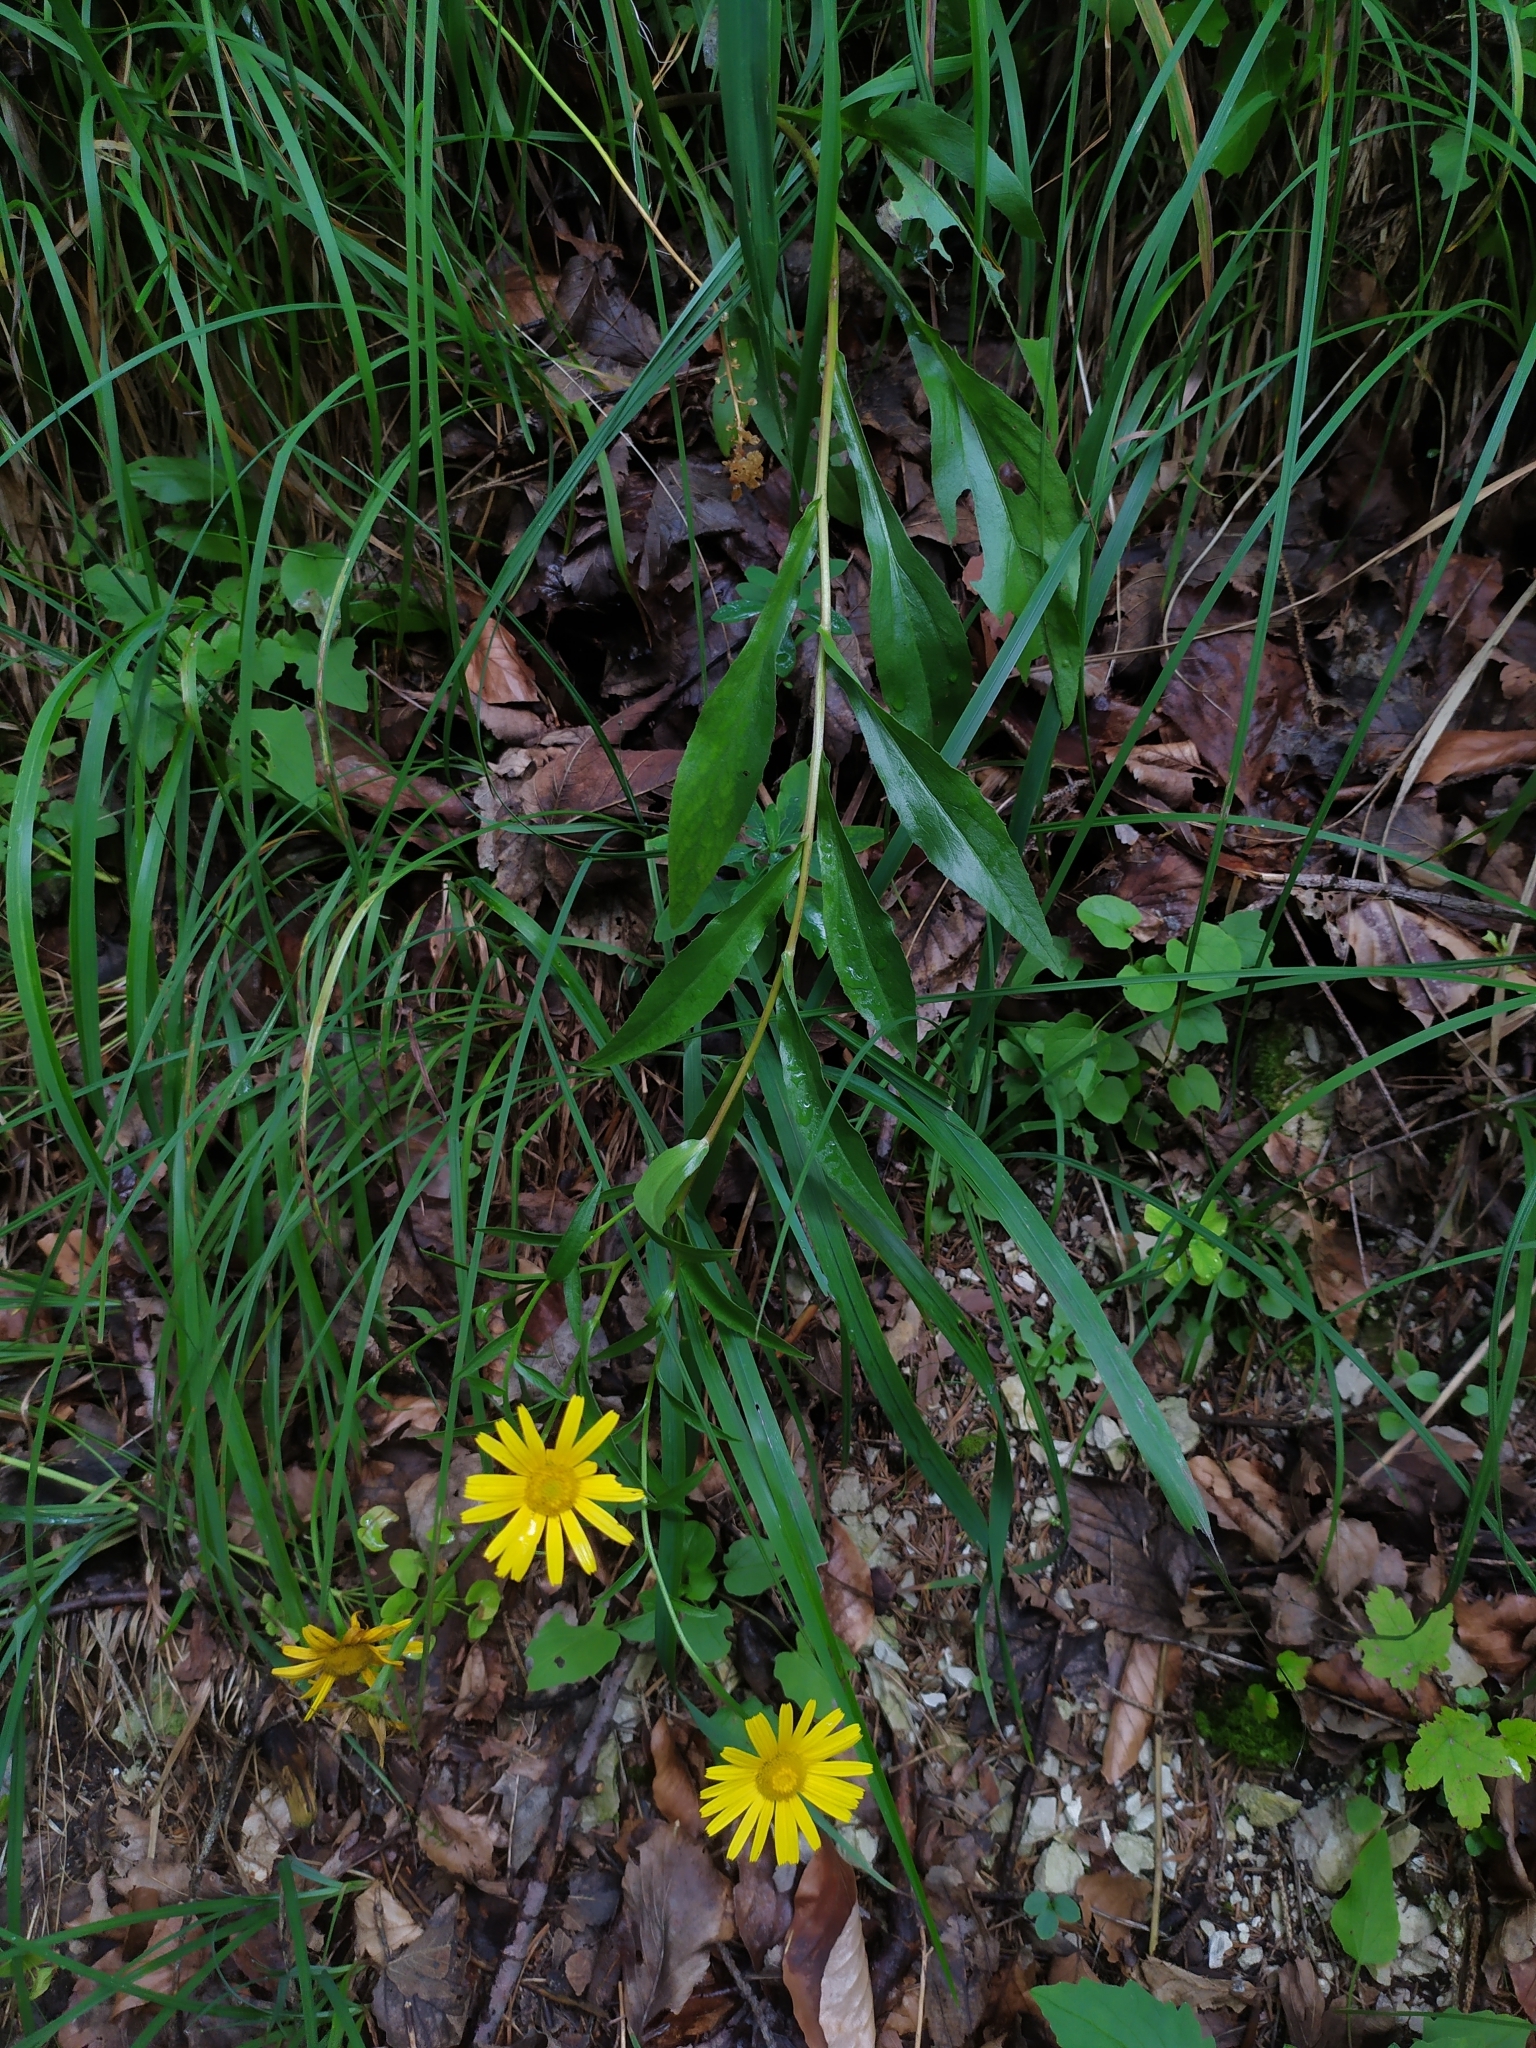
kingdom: Plantae
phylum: Tracheophyta
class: Magnoliopsida
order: Asterales
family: Asteraceae
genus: Buphthalmum
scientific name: Buphthalmum salicifolium
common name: Willow-leaved yellow-oxeye
